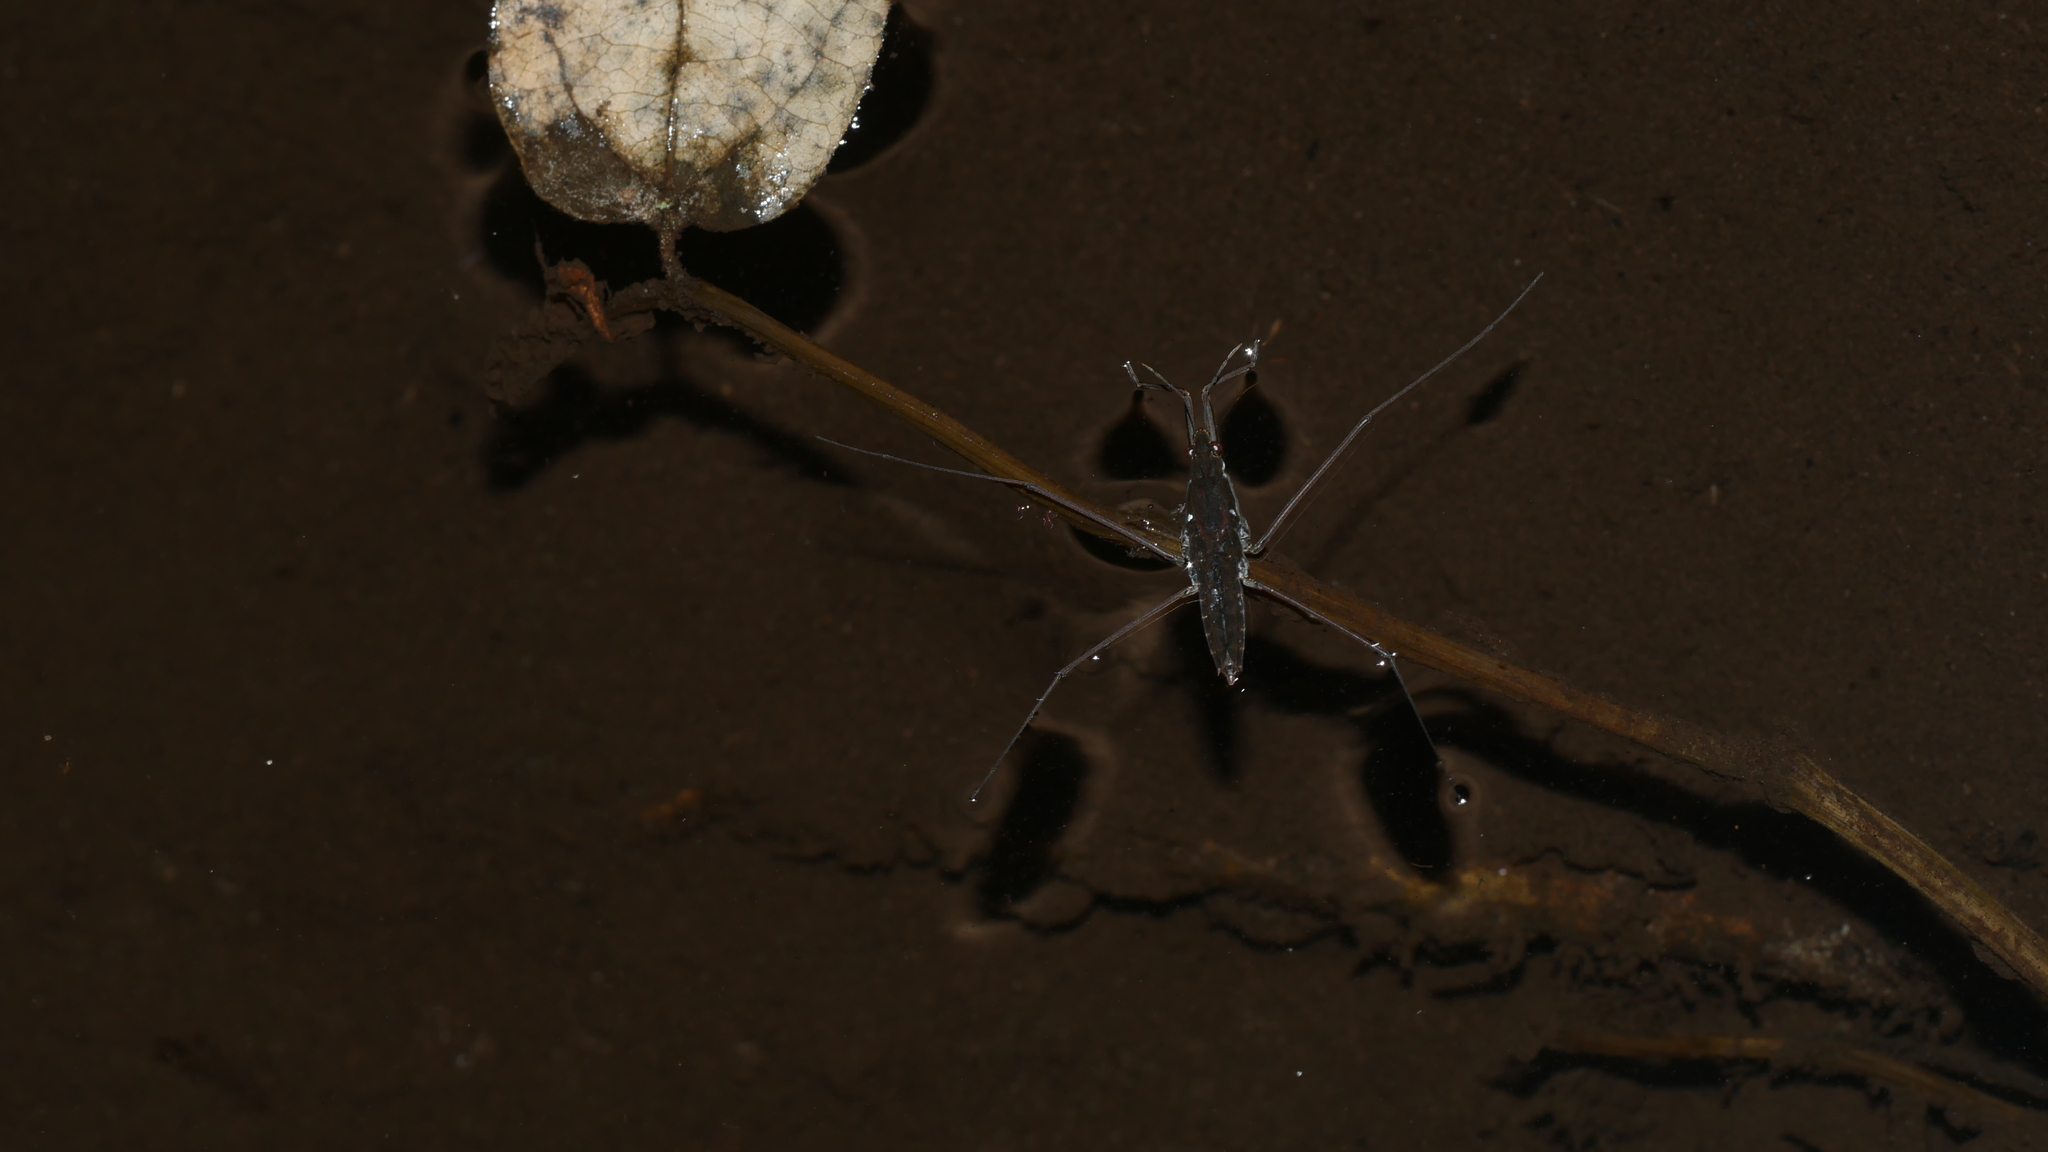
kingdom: Animalia
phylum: Arthropoda
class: Insecta
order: Hemiptera
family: Gerridae
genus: Aquarius
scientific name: Aquarius
